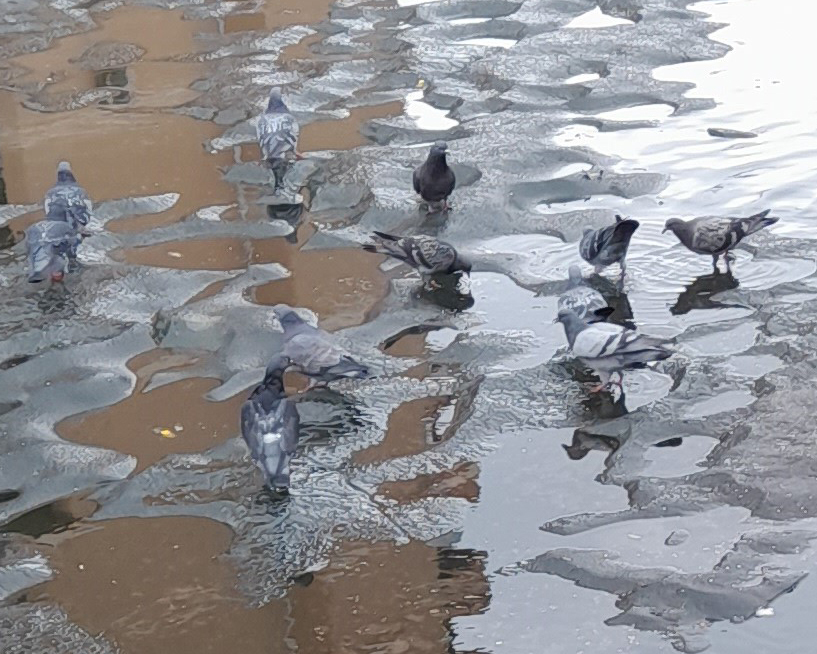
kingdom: Animalia
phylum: Chordata
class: Aves
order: Columbiformes
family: Columbidae
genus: Columba
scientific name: Columba livia
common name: Rock pigeon
